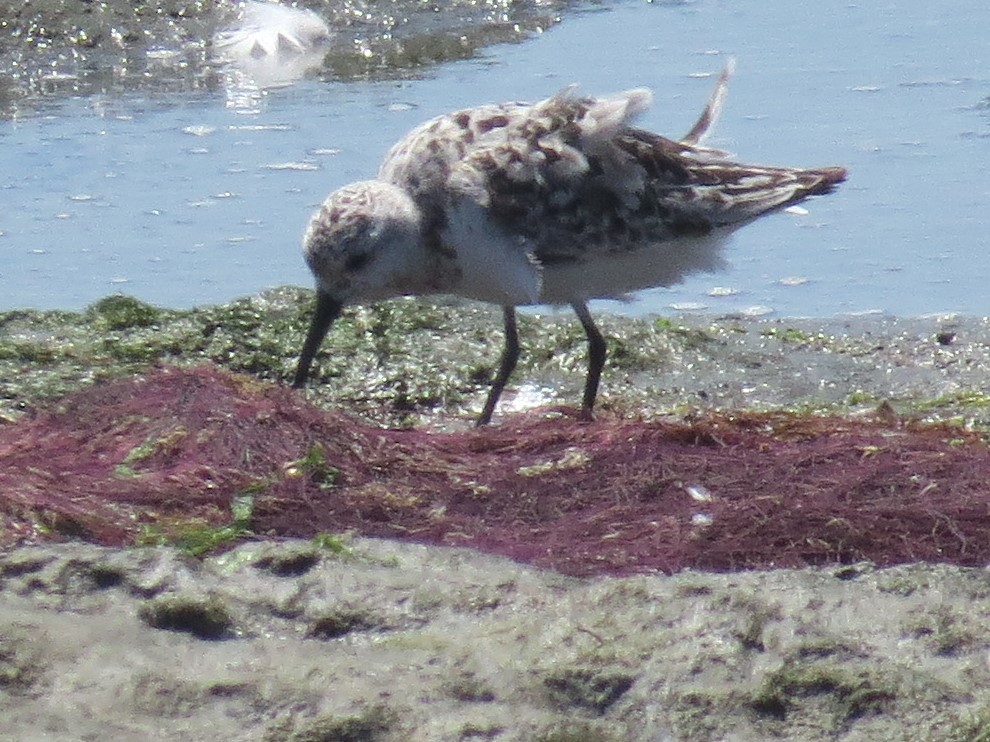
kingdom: Animalia
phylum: Chordata
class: Aves
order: Charadriiformes
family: Scolopacidae
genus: Calidris
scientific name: Calidris alba
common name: Sanderling
